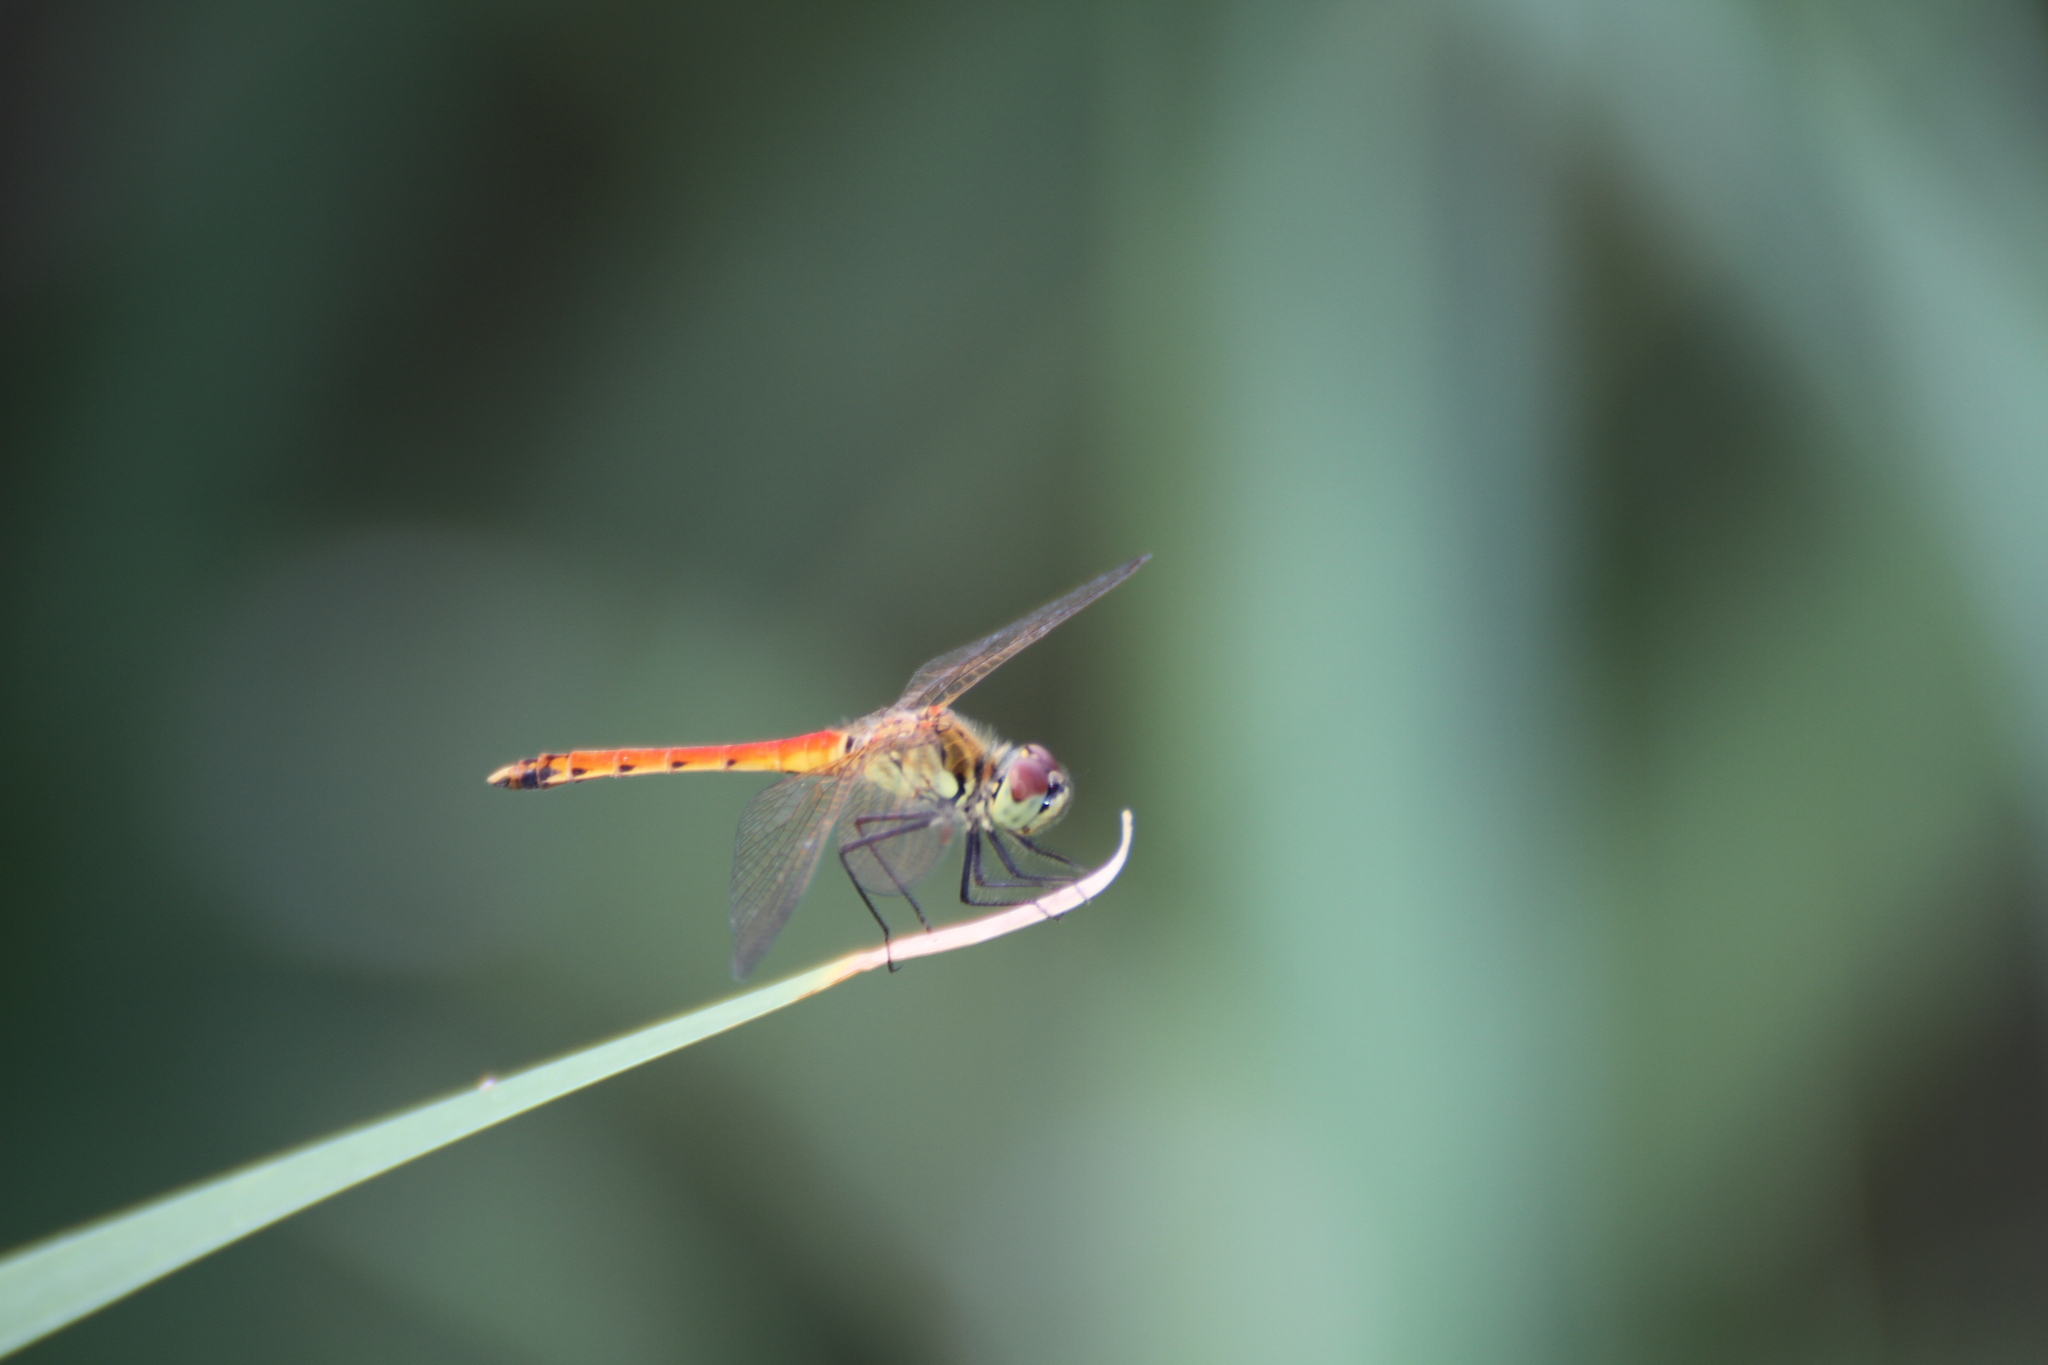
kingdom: Animalia
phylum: Arthropoda
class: Insecta
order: Odonata
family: Libellulidae
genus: Sympetrum
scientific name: Sympetrum depressiusculum
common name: Spotted darter
